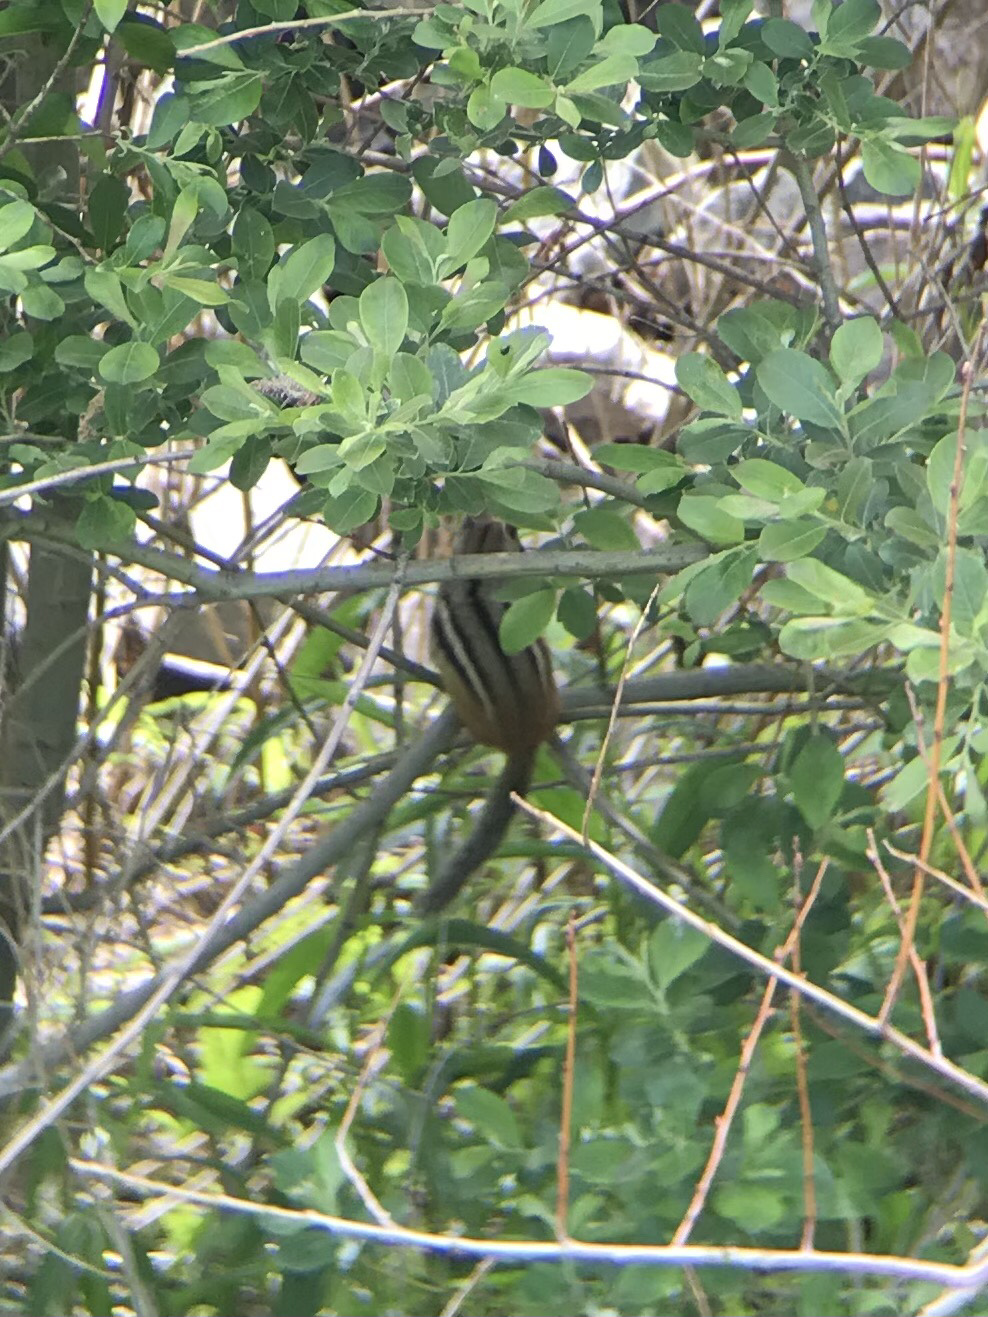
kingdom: Animalia
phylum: Chordata
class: Mammalia
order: Rodentia
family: Sciuridae
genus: Tamias
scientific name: Tamias striatus
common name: Eastern chipmunk
